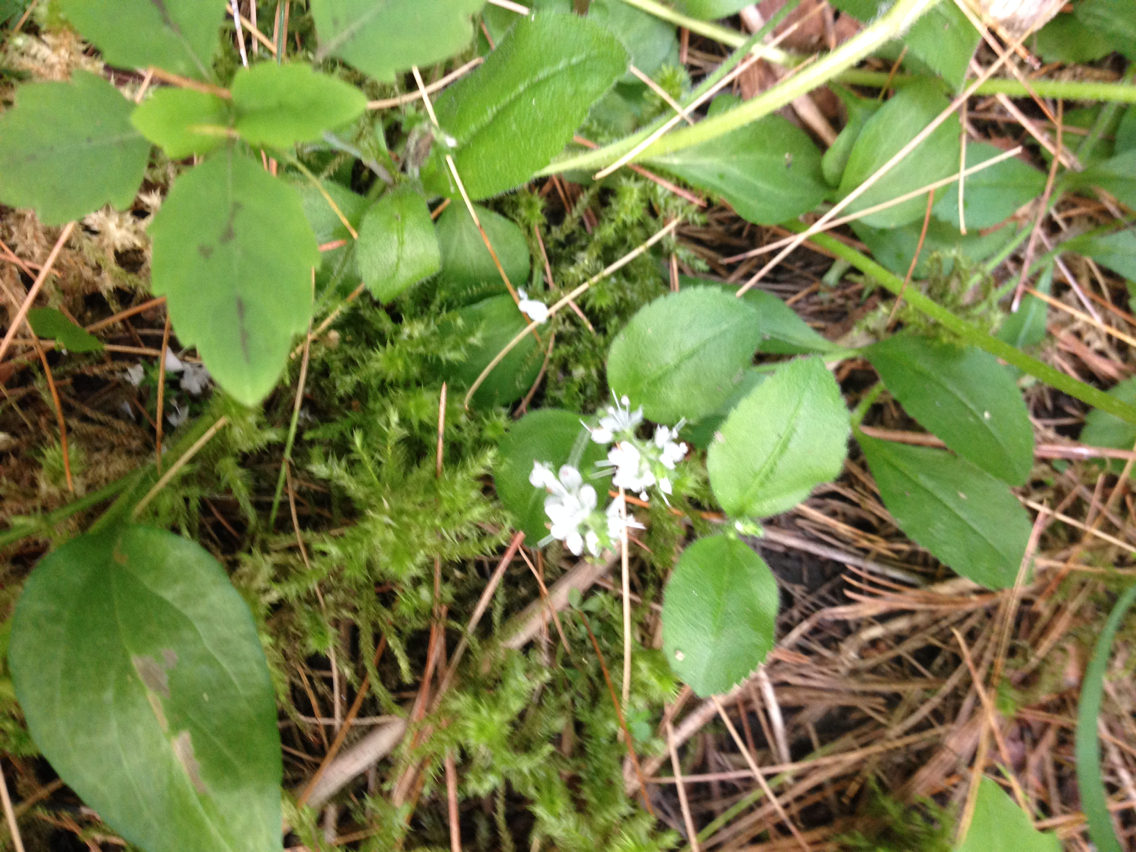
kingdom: Plantae
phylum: Tracheophyta
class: Magnoliopsida
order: Lamiales
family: Plantaginaceae
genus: Veronica
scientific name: Veronica officinalis
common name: Common speedwell
